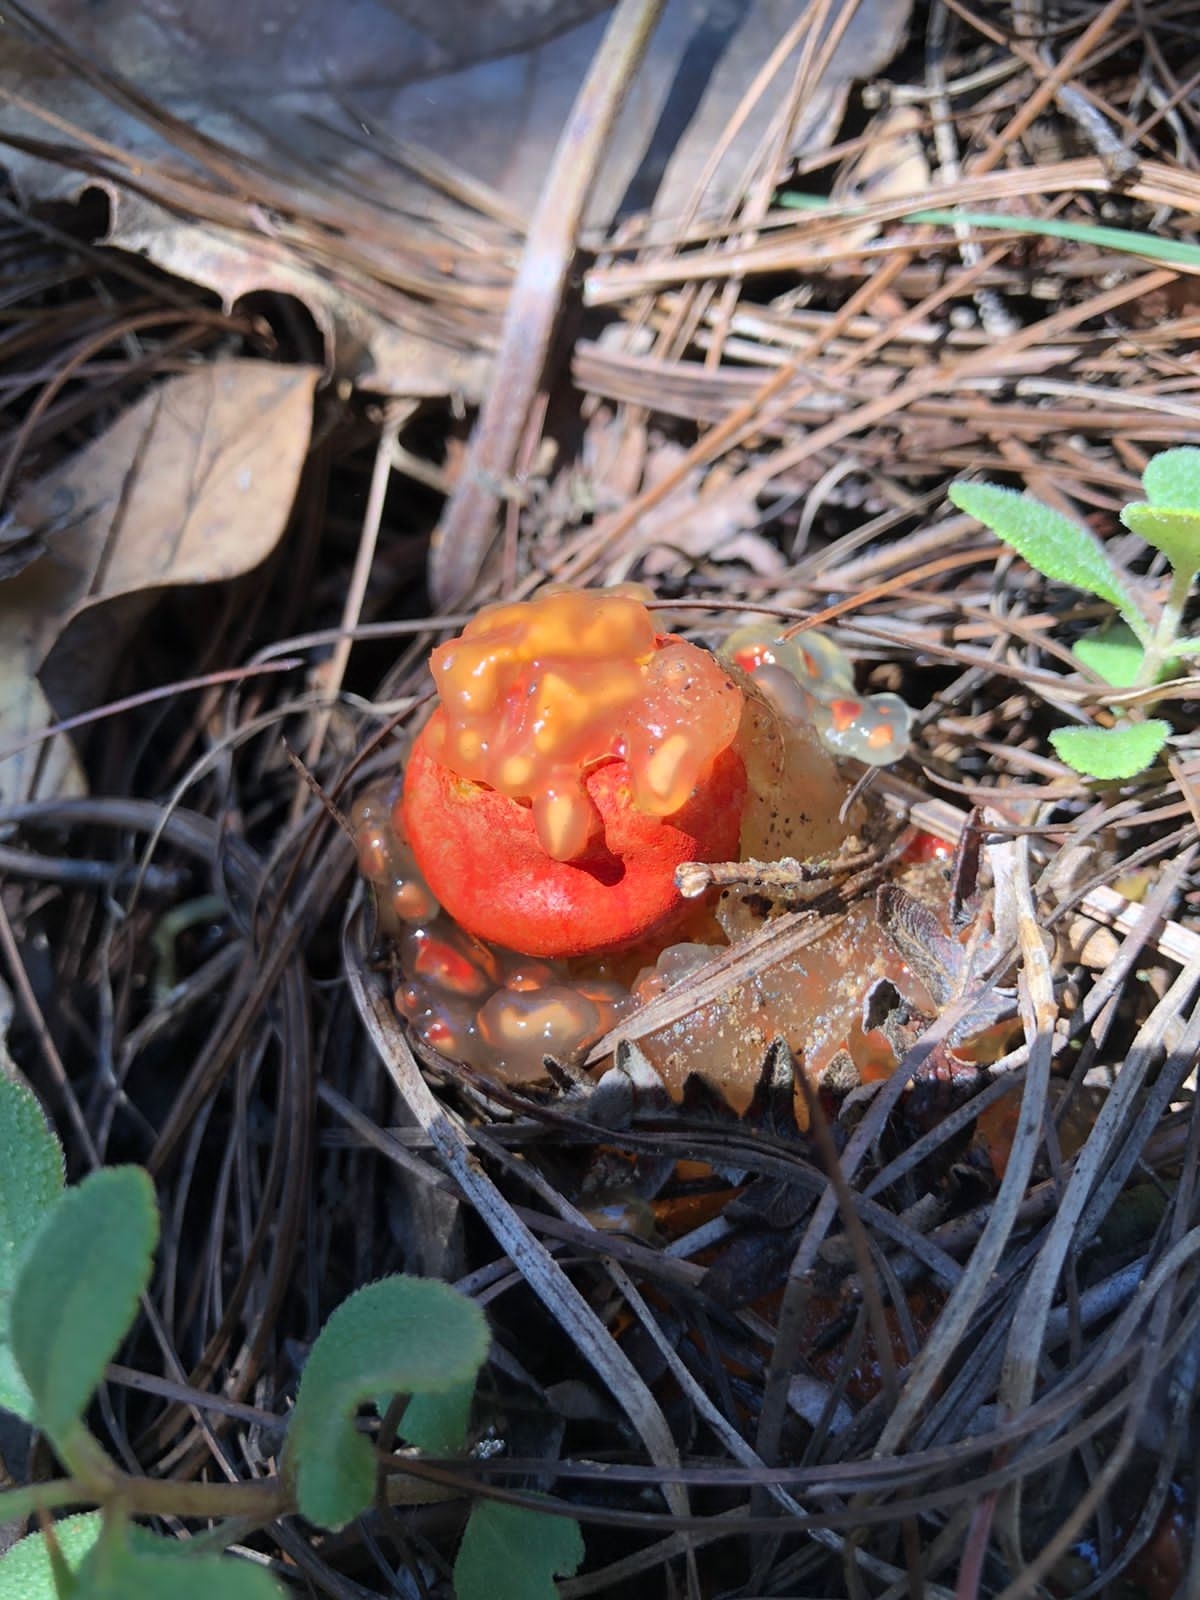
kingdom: Fungi
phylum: Basidiomycota
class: Agaricomycetes
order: Boletales
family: Calostomataceae
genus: Calostoma
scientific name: Calostoma cinnabarinum
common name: Stalked puffball-in-aspic
